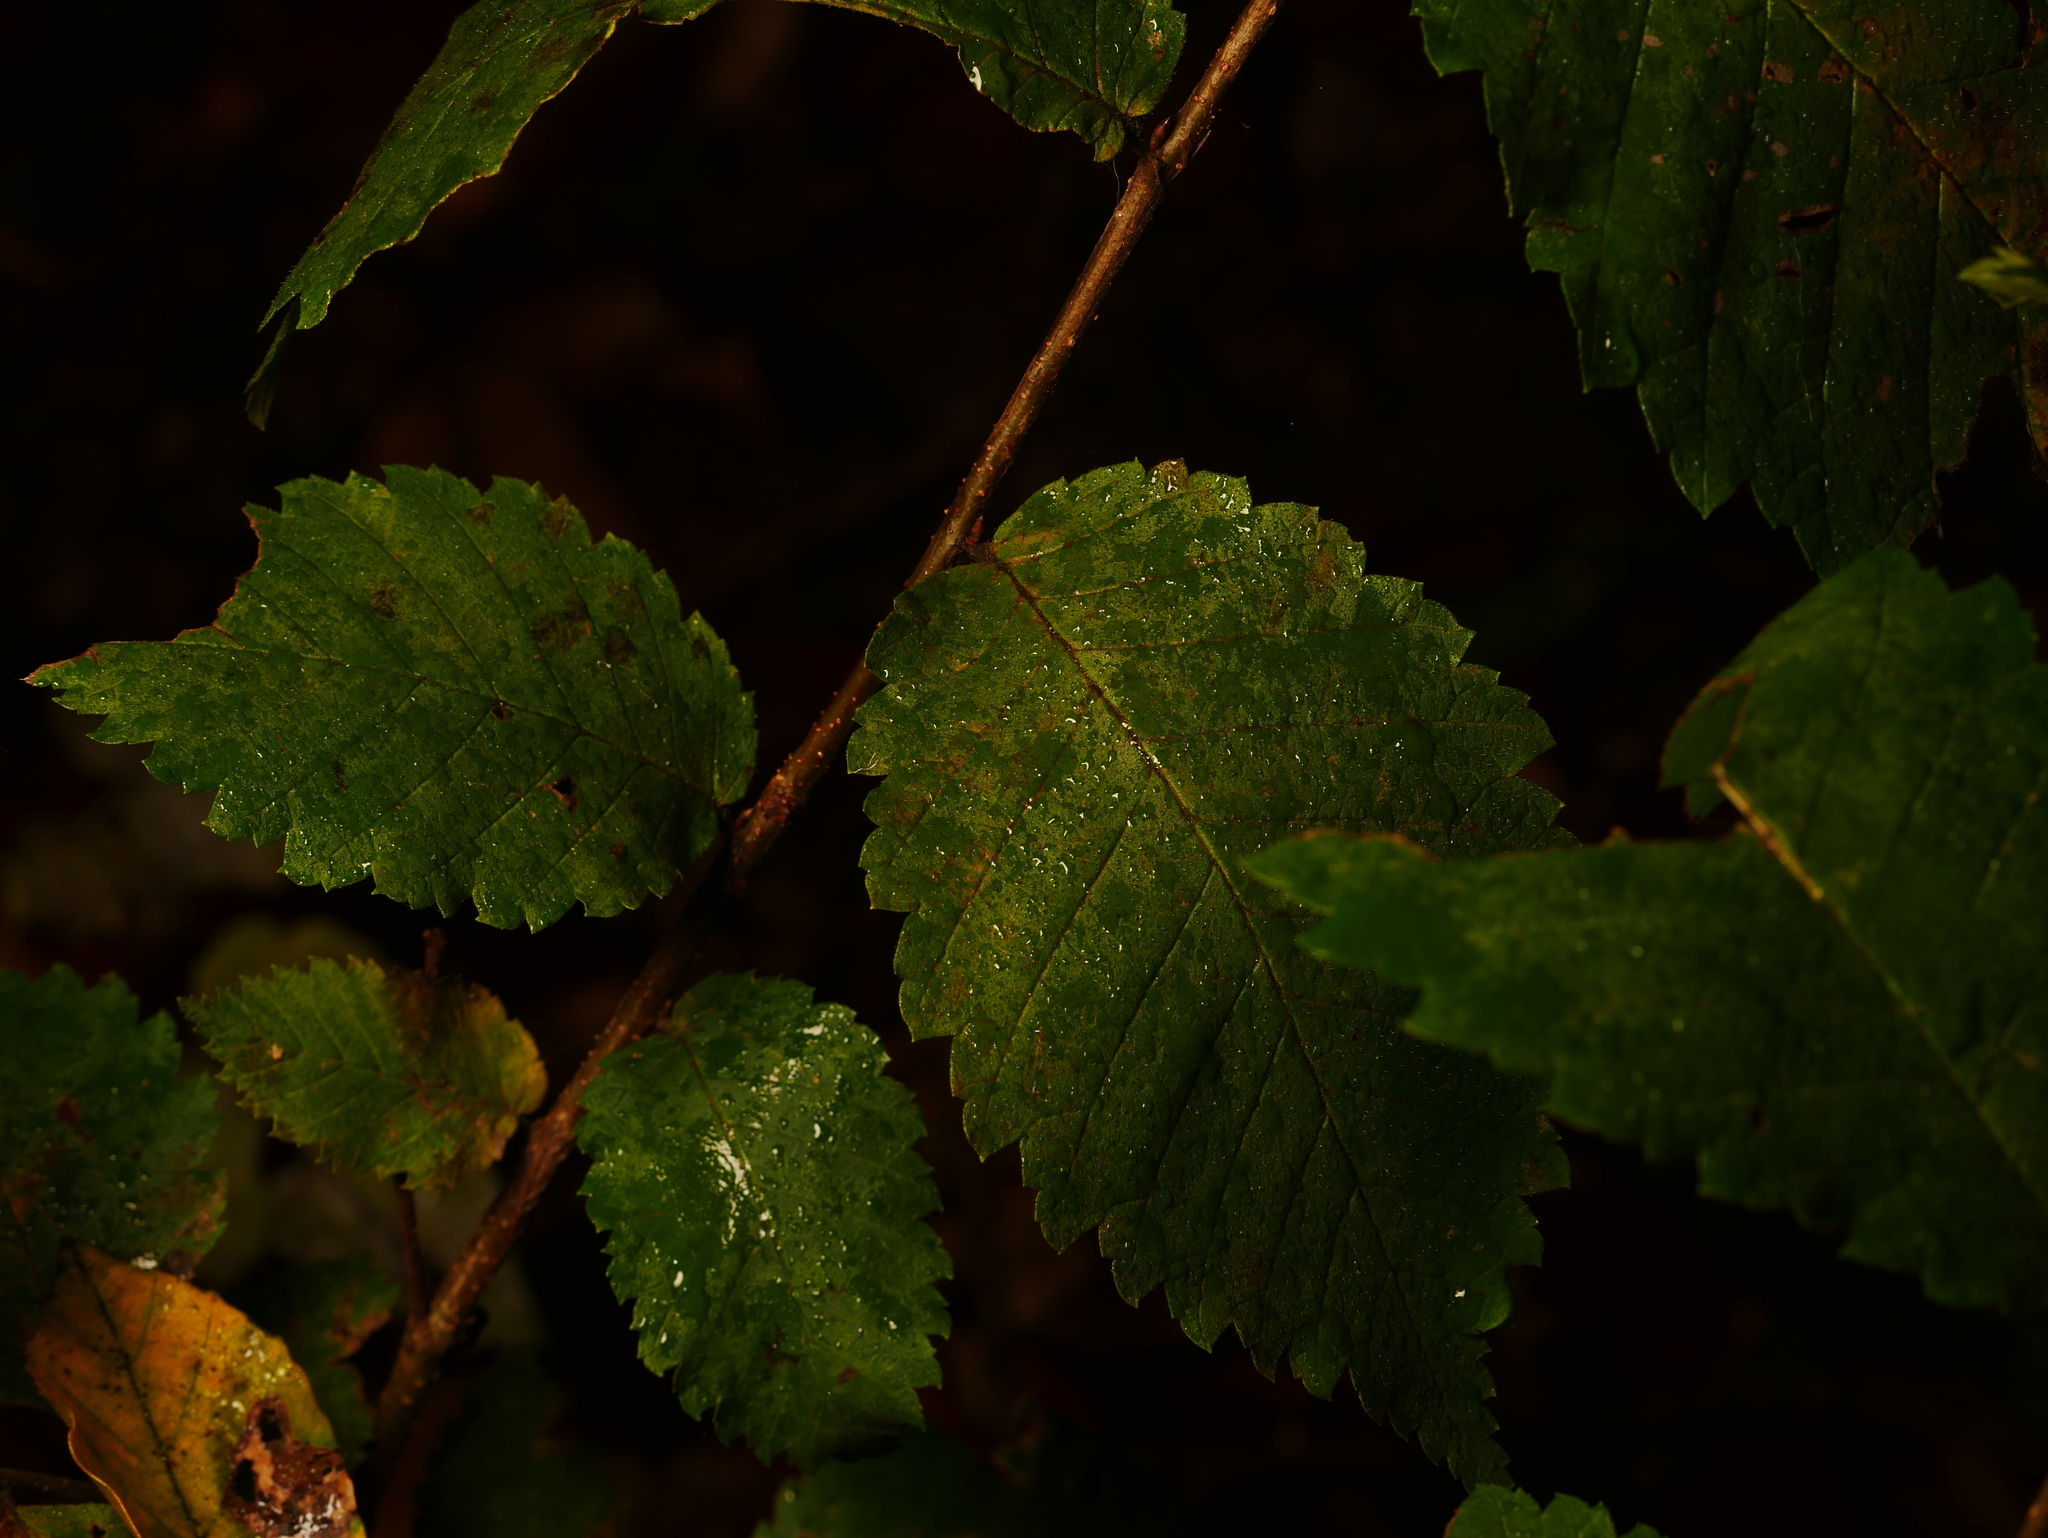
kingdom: Plantae
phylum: Tracheophyta
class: Magnoliopsida
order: Rosales
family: Ulmaceae
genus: Ulmus
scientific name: Ulmus minor
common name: Small-leaved elm
